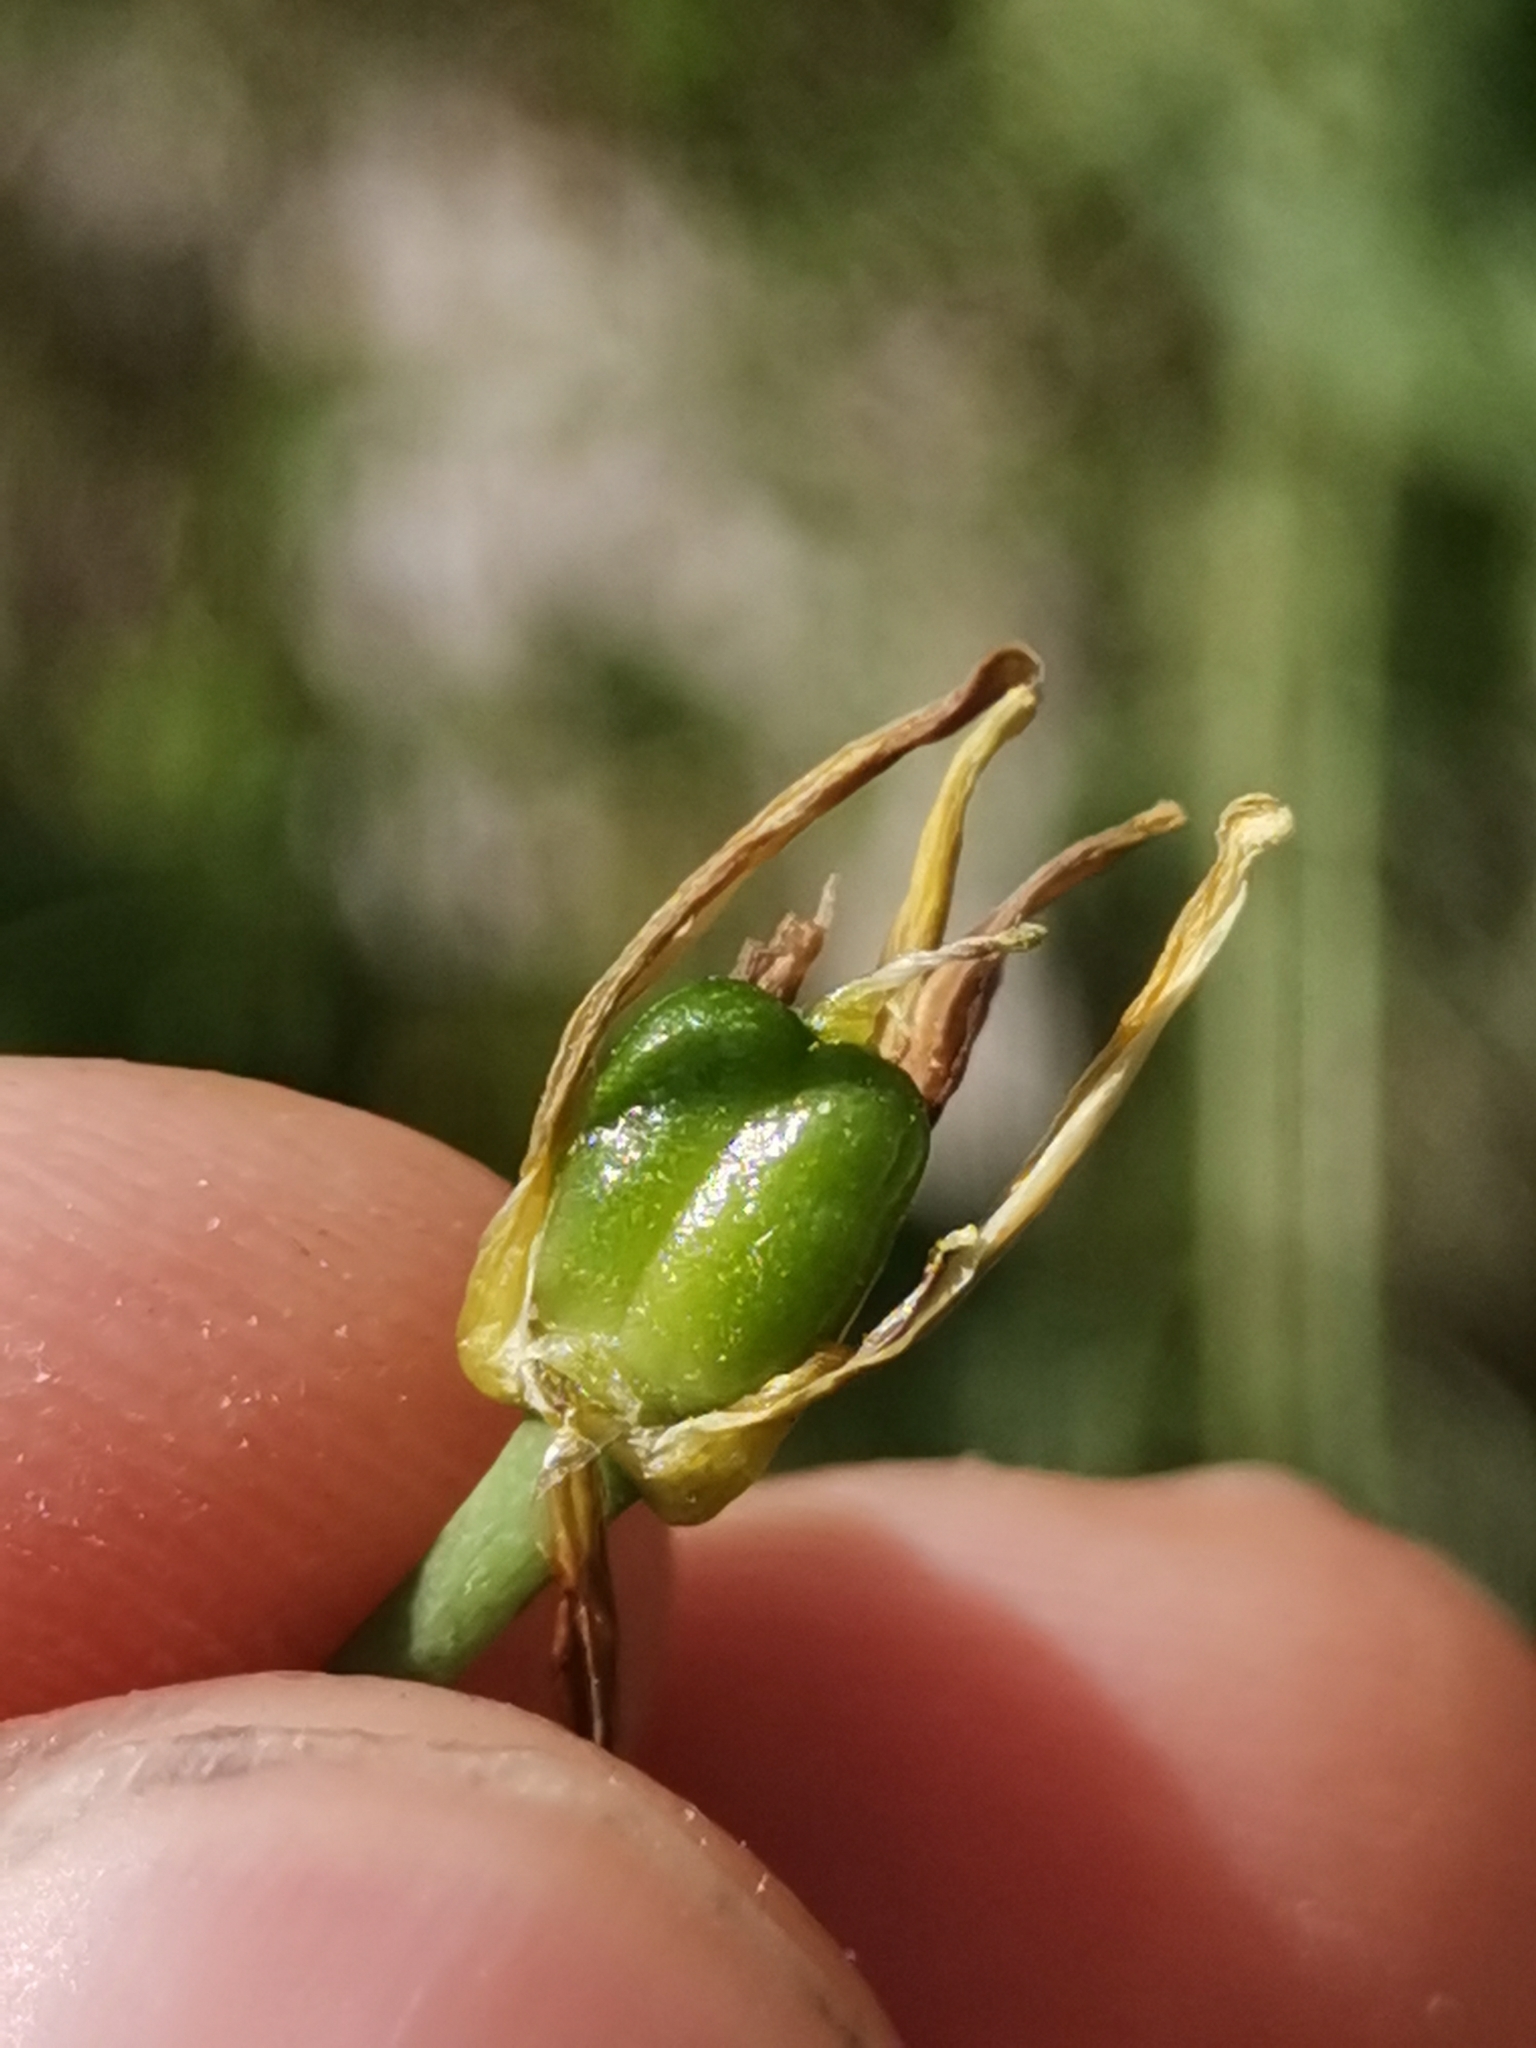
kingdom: Plantae
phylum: Tracheophyta
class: Liliopsida
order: Asparagales
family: Asparagaceae
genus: Ornithogalum
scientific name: Ornithogalum pyrenaicum
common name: Spiked star-of-bethlehem
